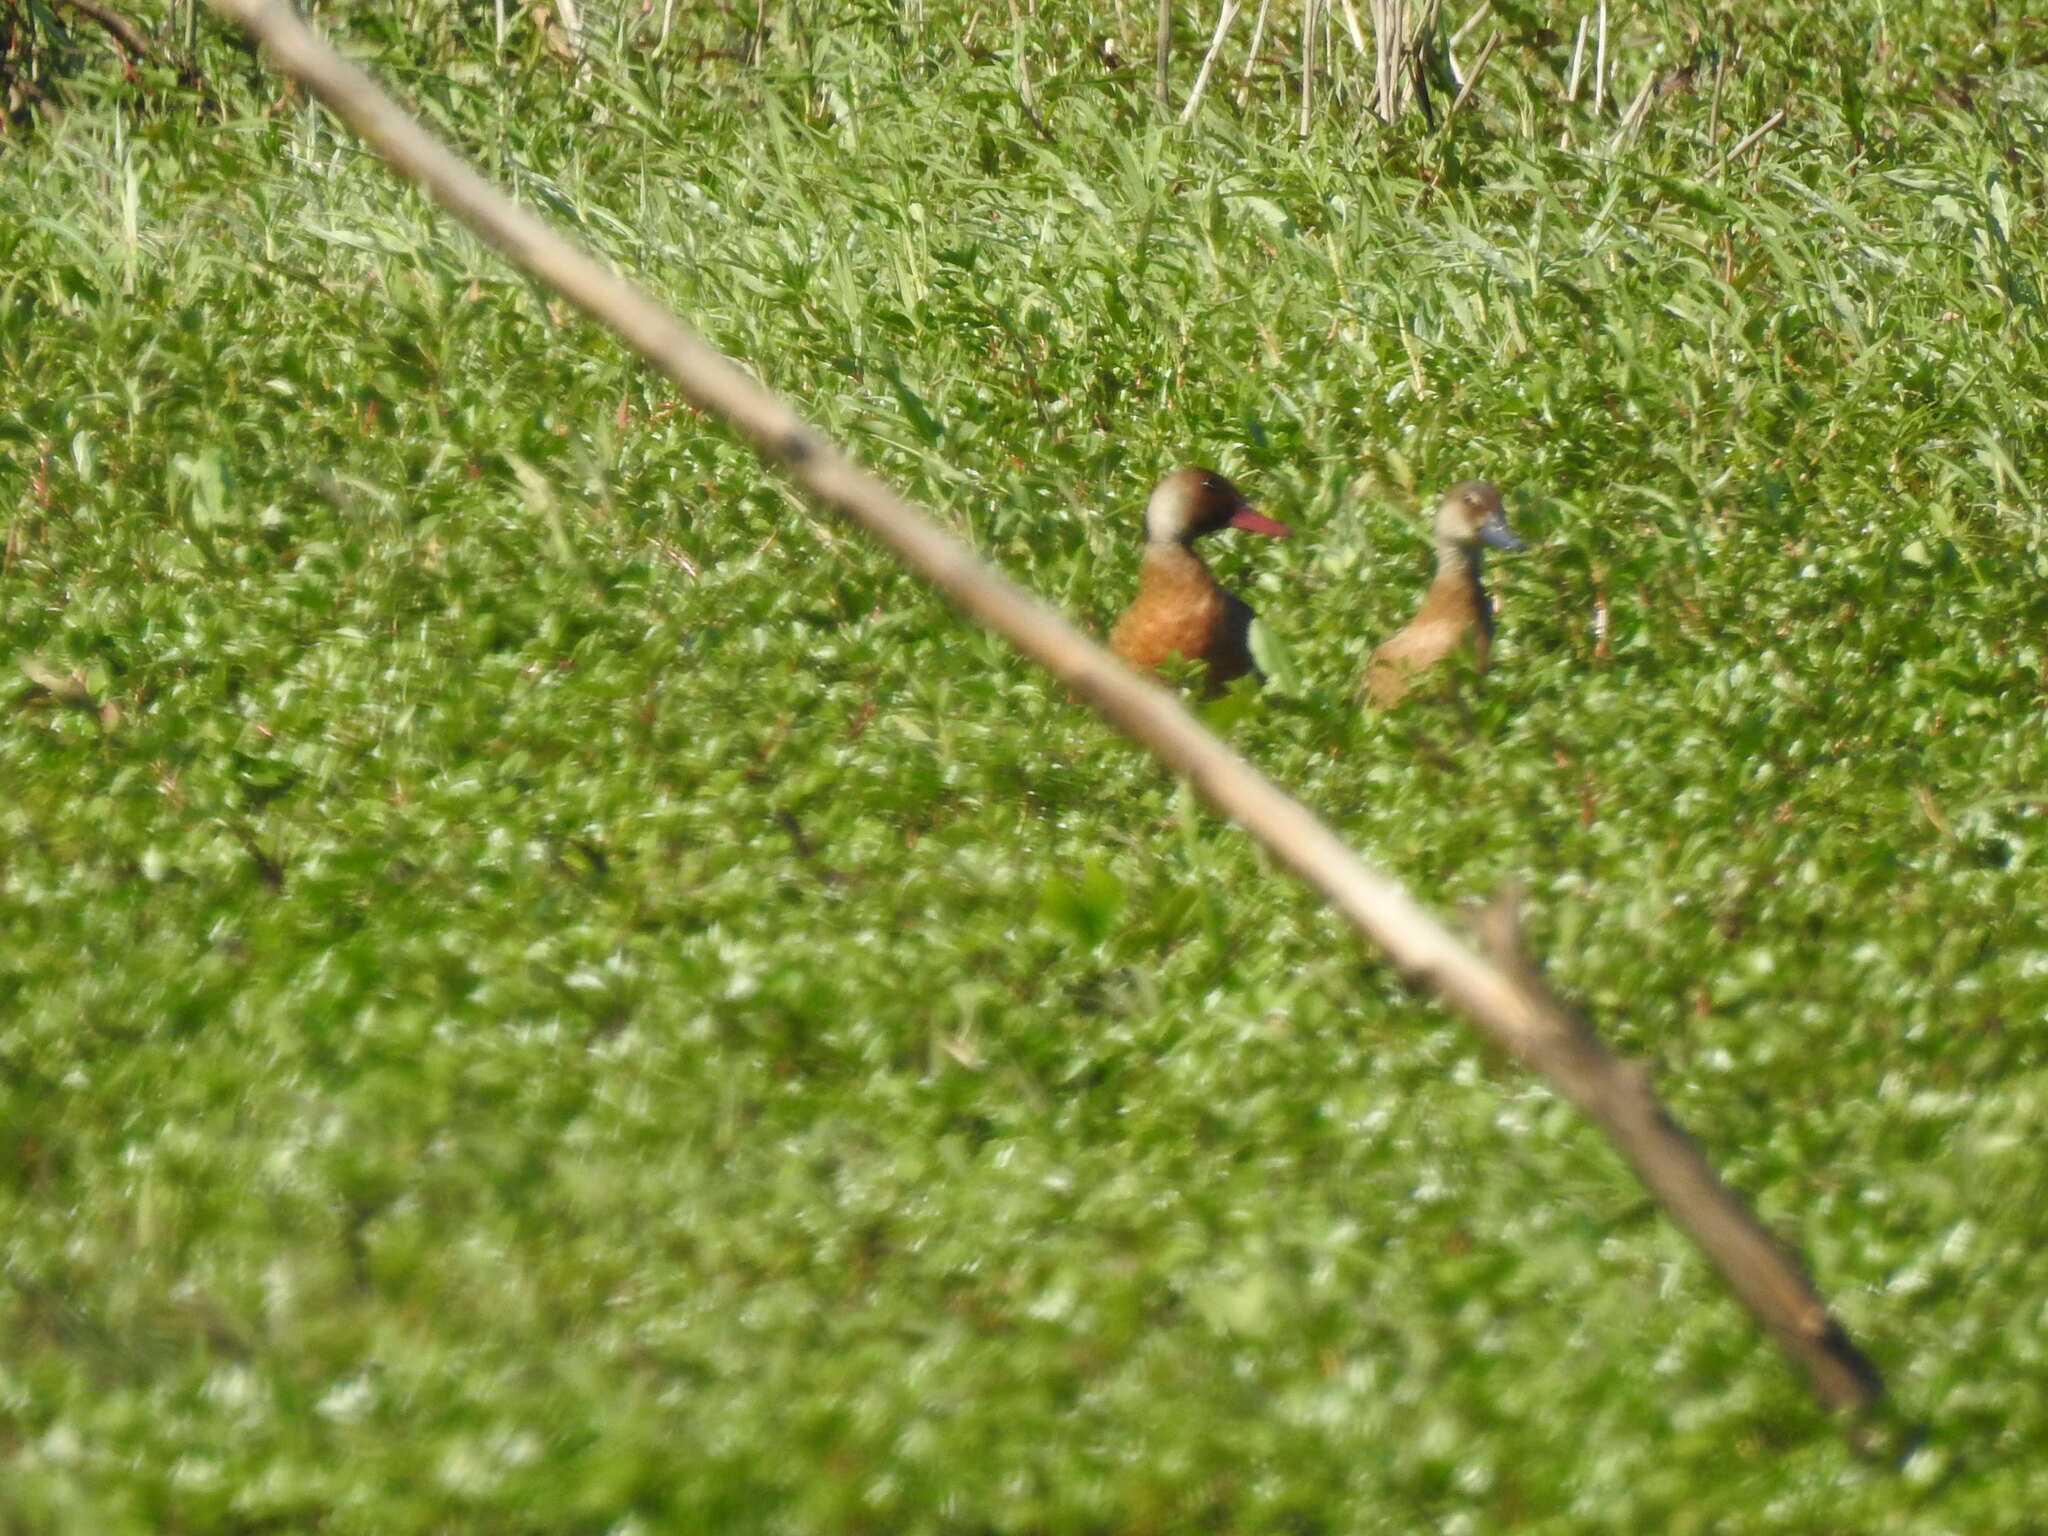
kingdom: Animalia
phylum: Chordata
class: Aves
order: Anseriformes
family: Anatidae
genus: Amazonetta
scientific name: Amazonetta brasiliensis
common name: Brazilian teal
